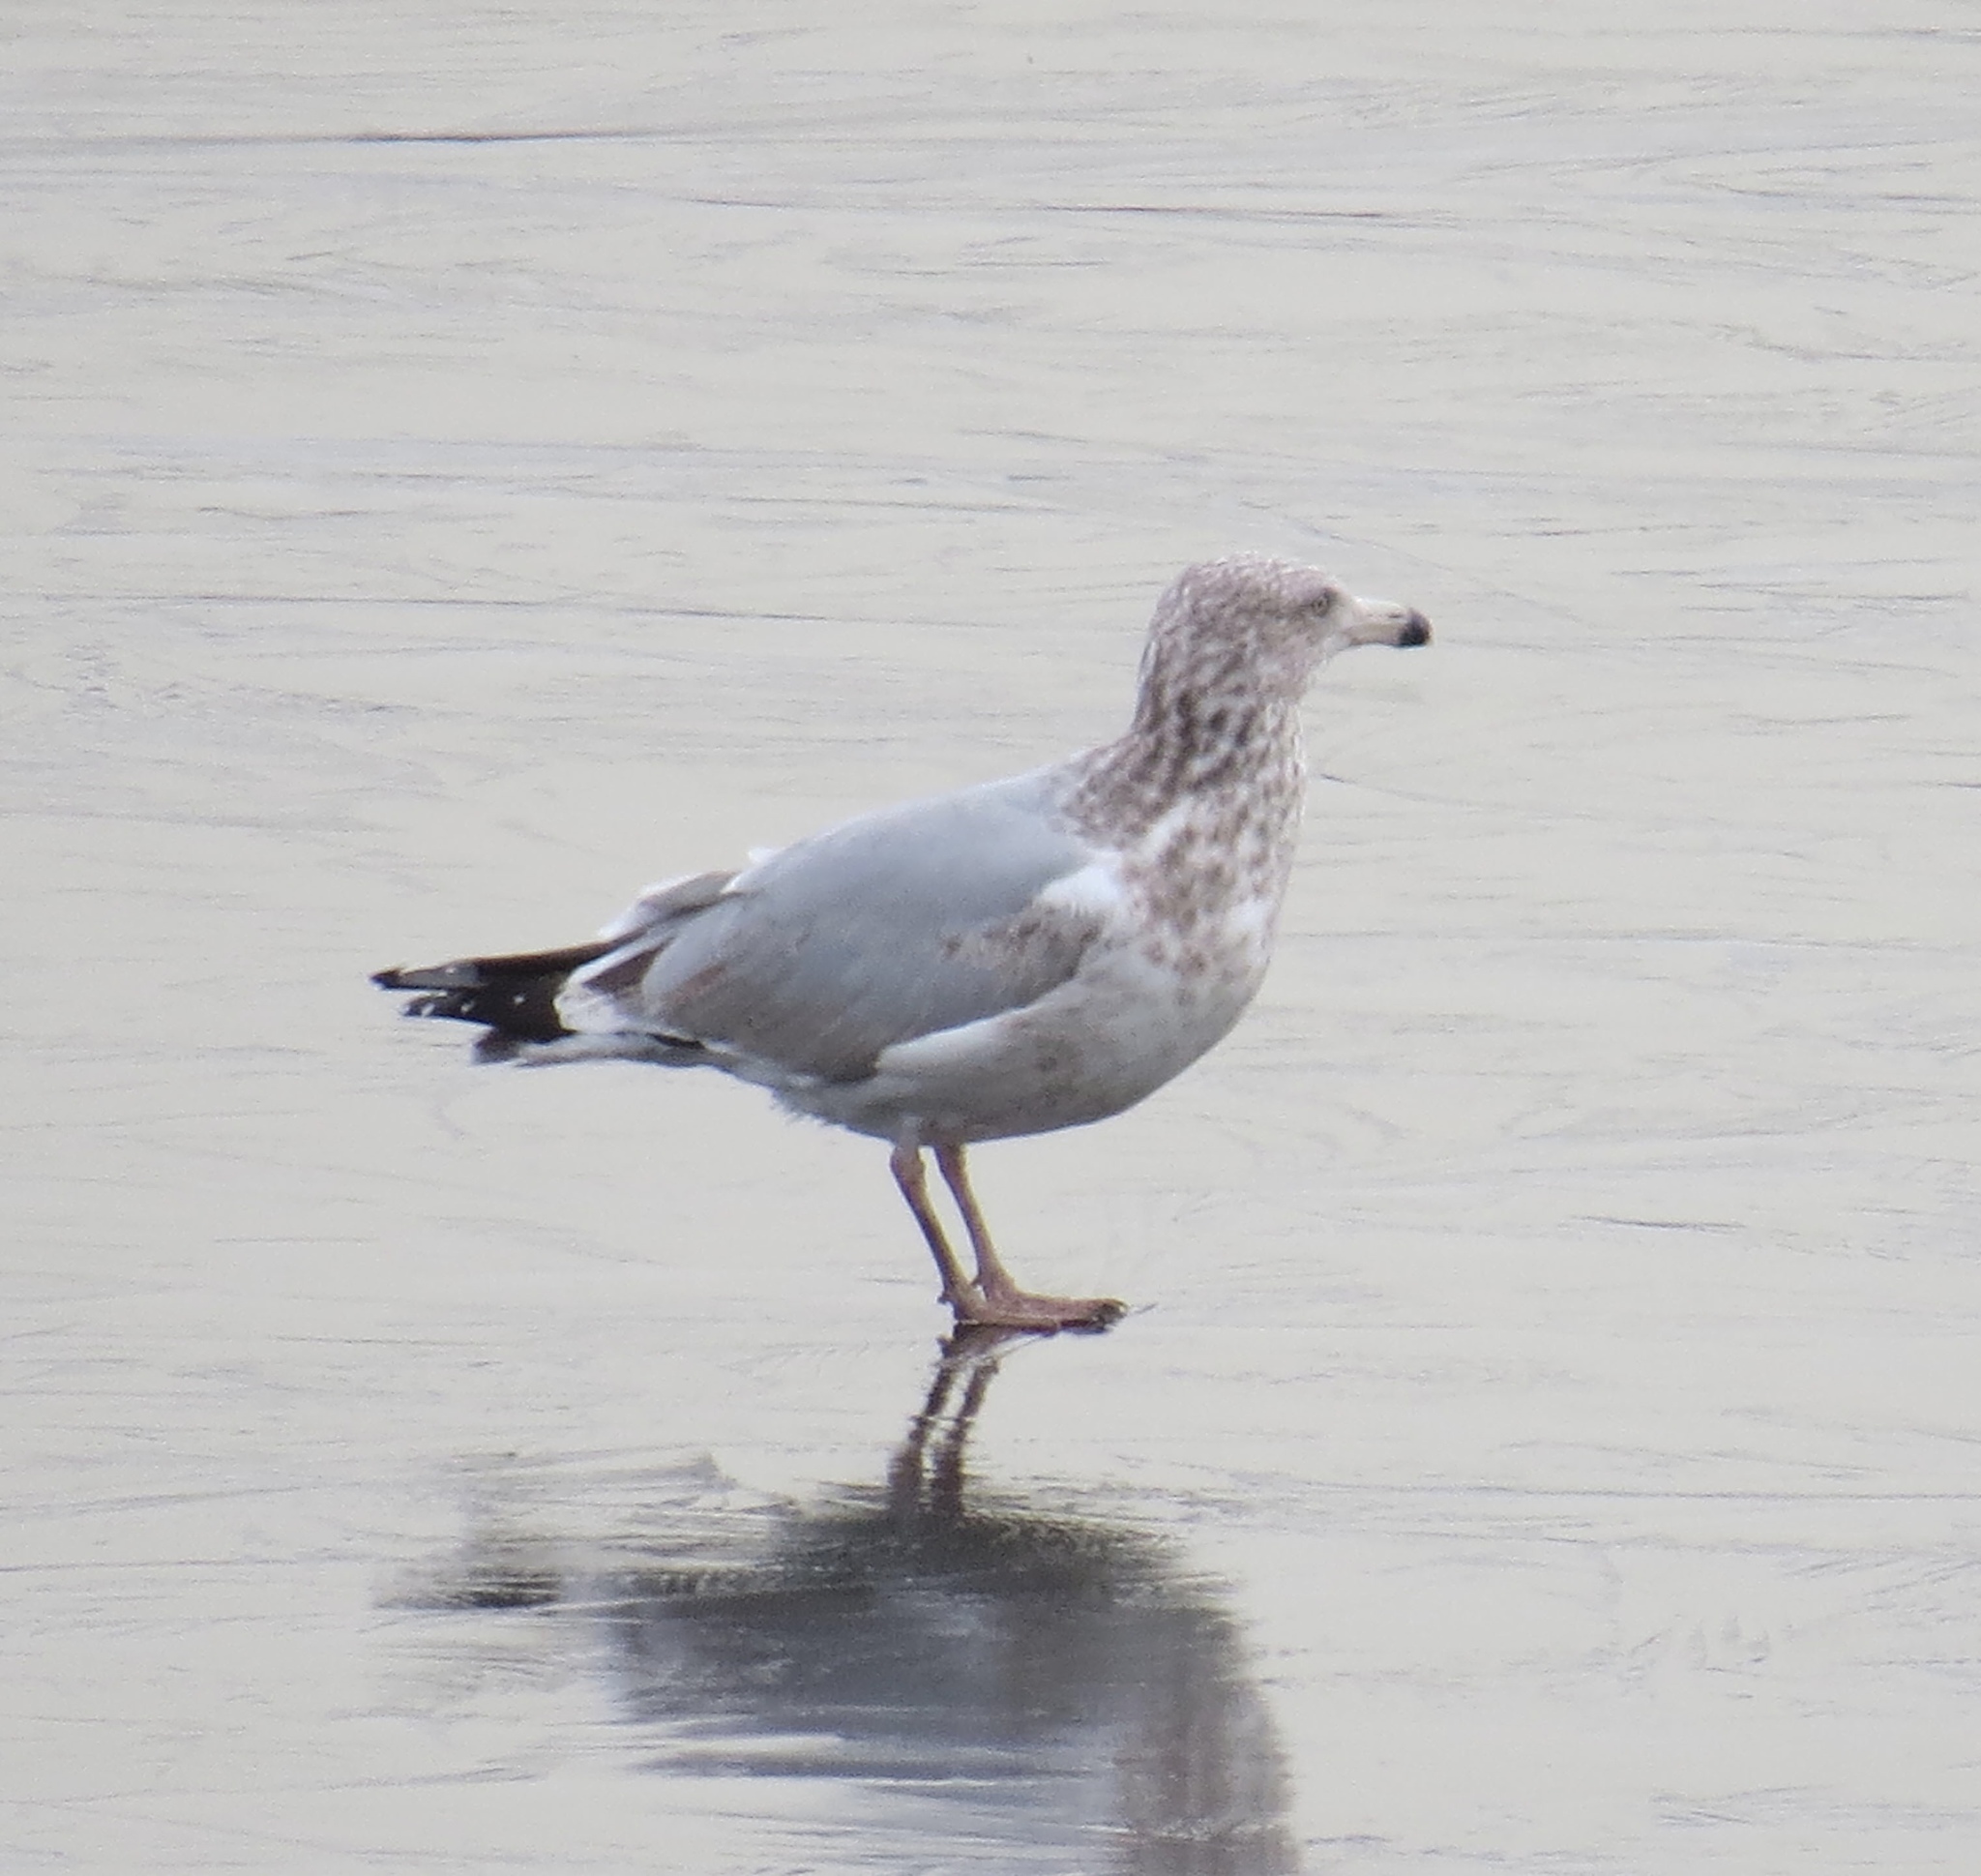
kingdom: Animalia
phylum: Chordata
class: Aves
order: Charadriiformes
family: Laridae
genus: Larus
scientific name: Larus argentatus
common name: Herring gull
